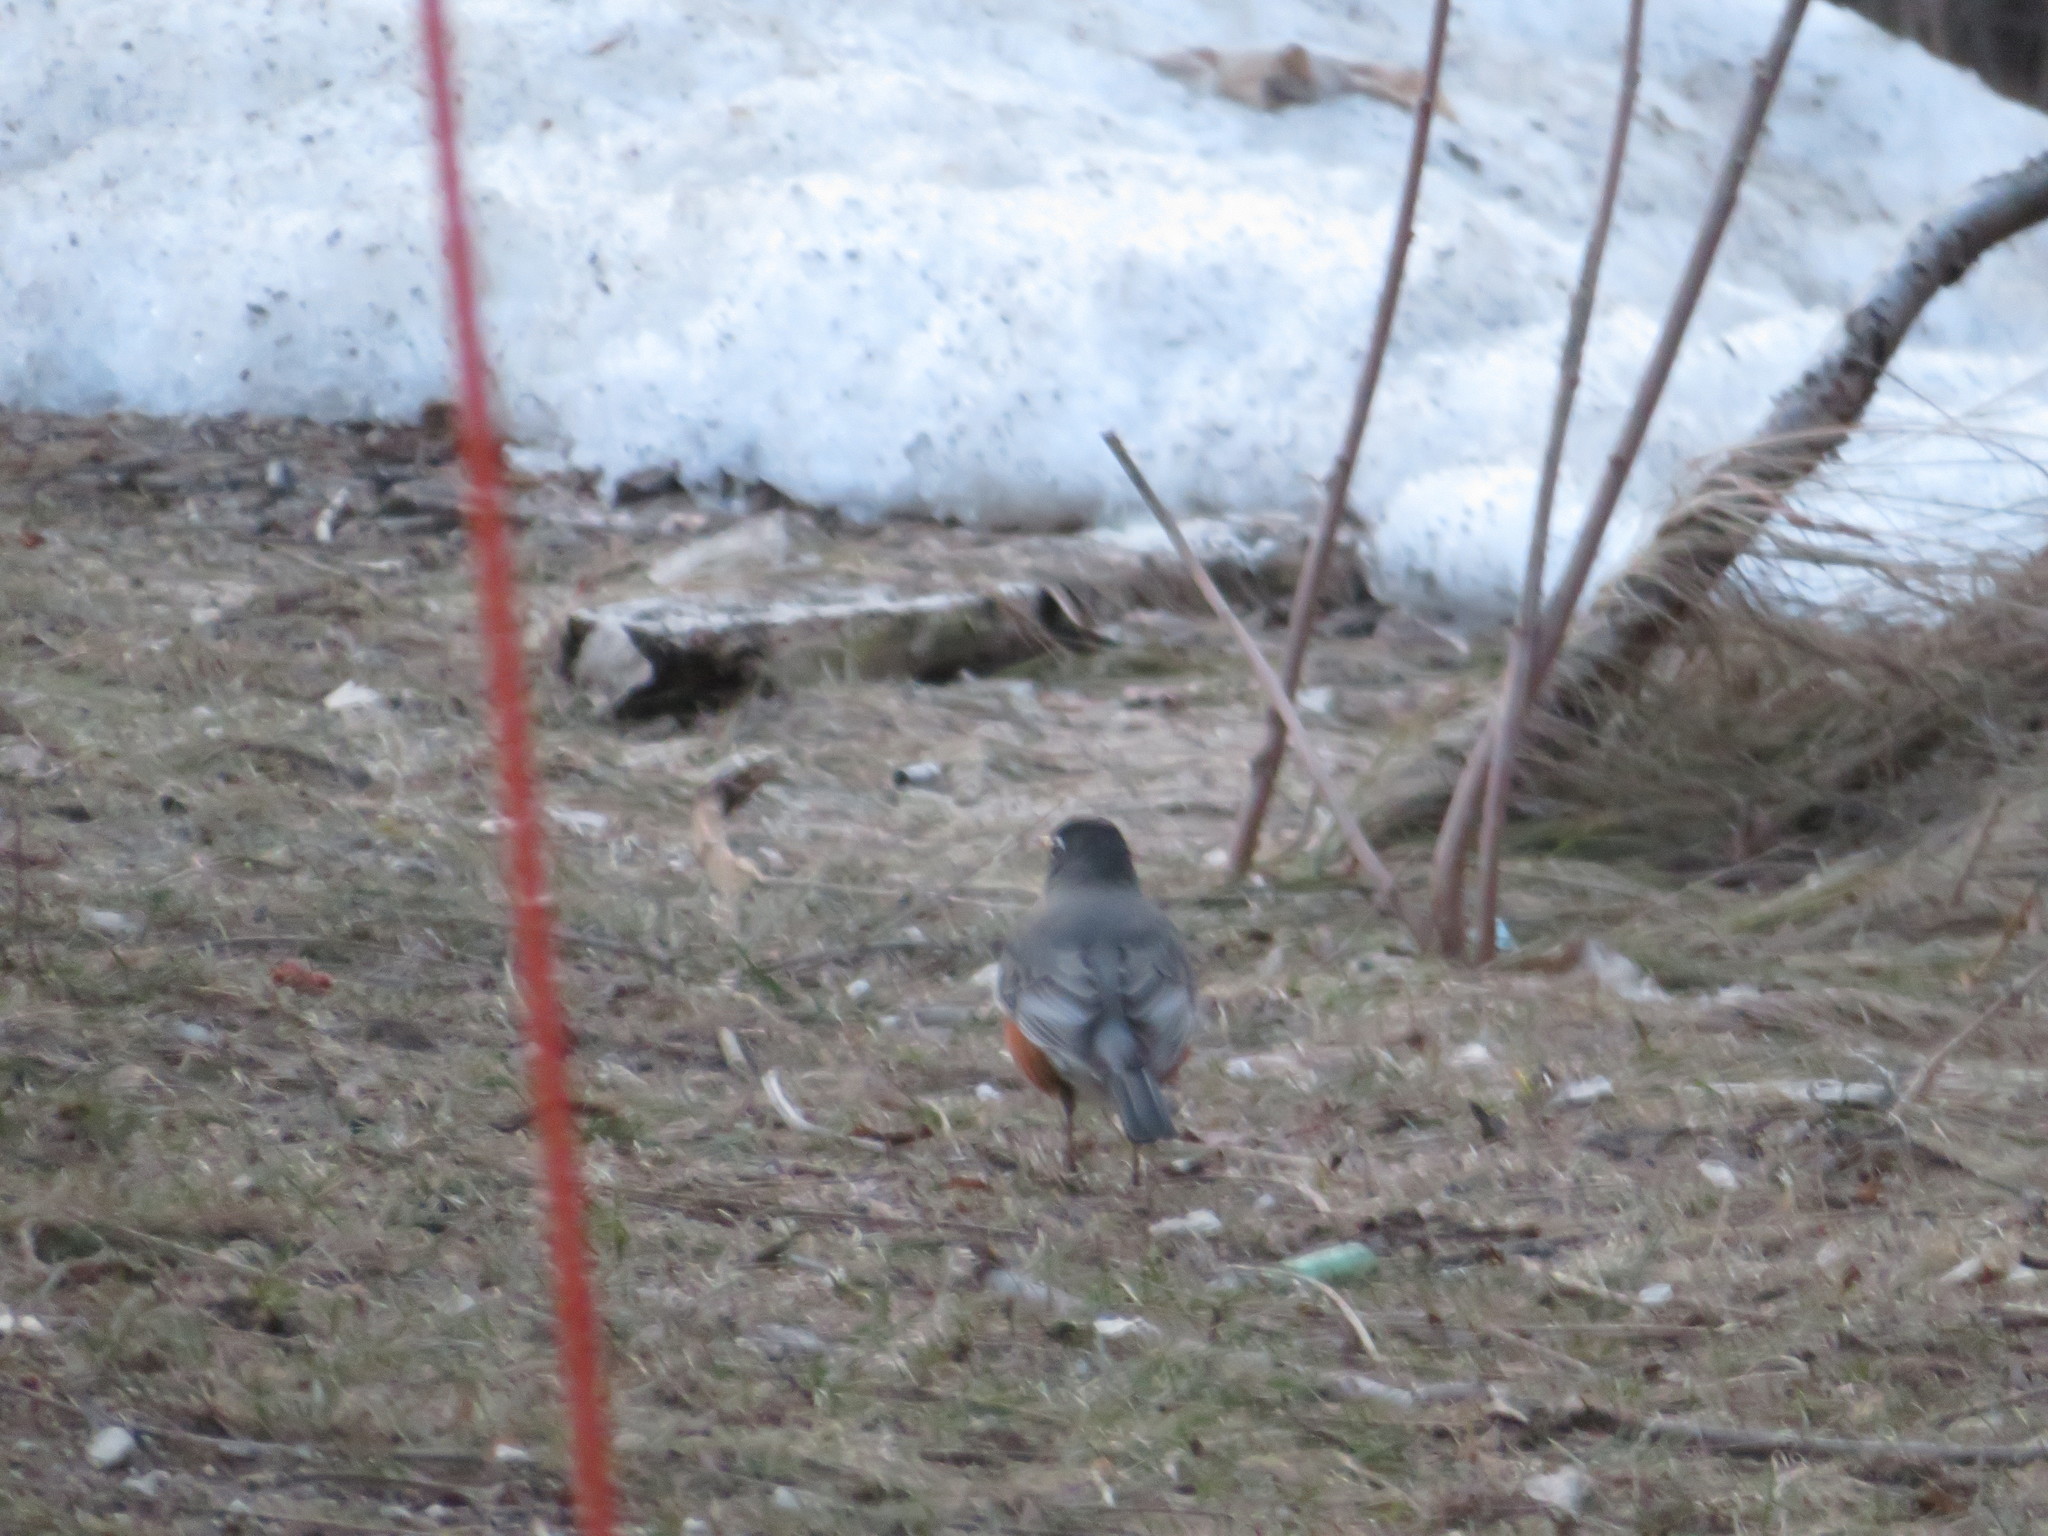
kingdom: Animalia
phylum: Chordata
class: Aves
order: Passeriformes
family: Turdidae
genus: Turdus
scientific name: Turdus migratorius
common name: American robin
